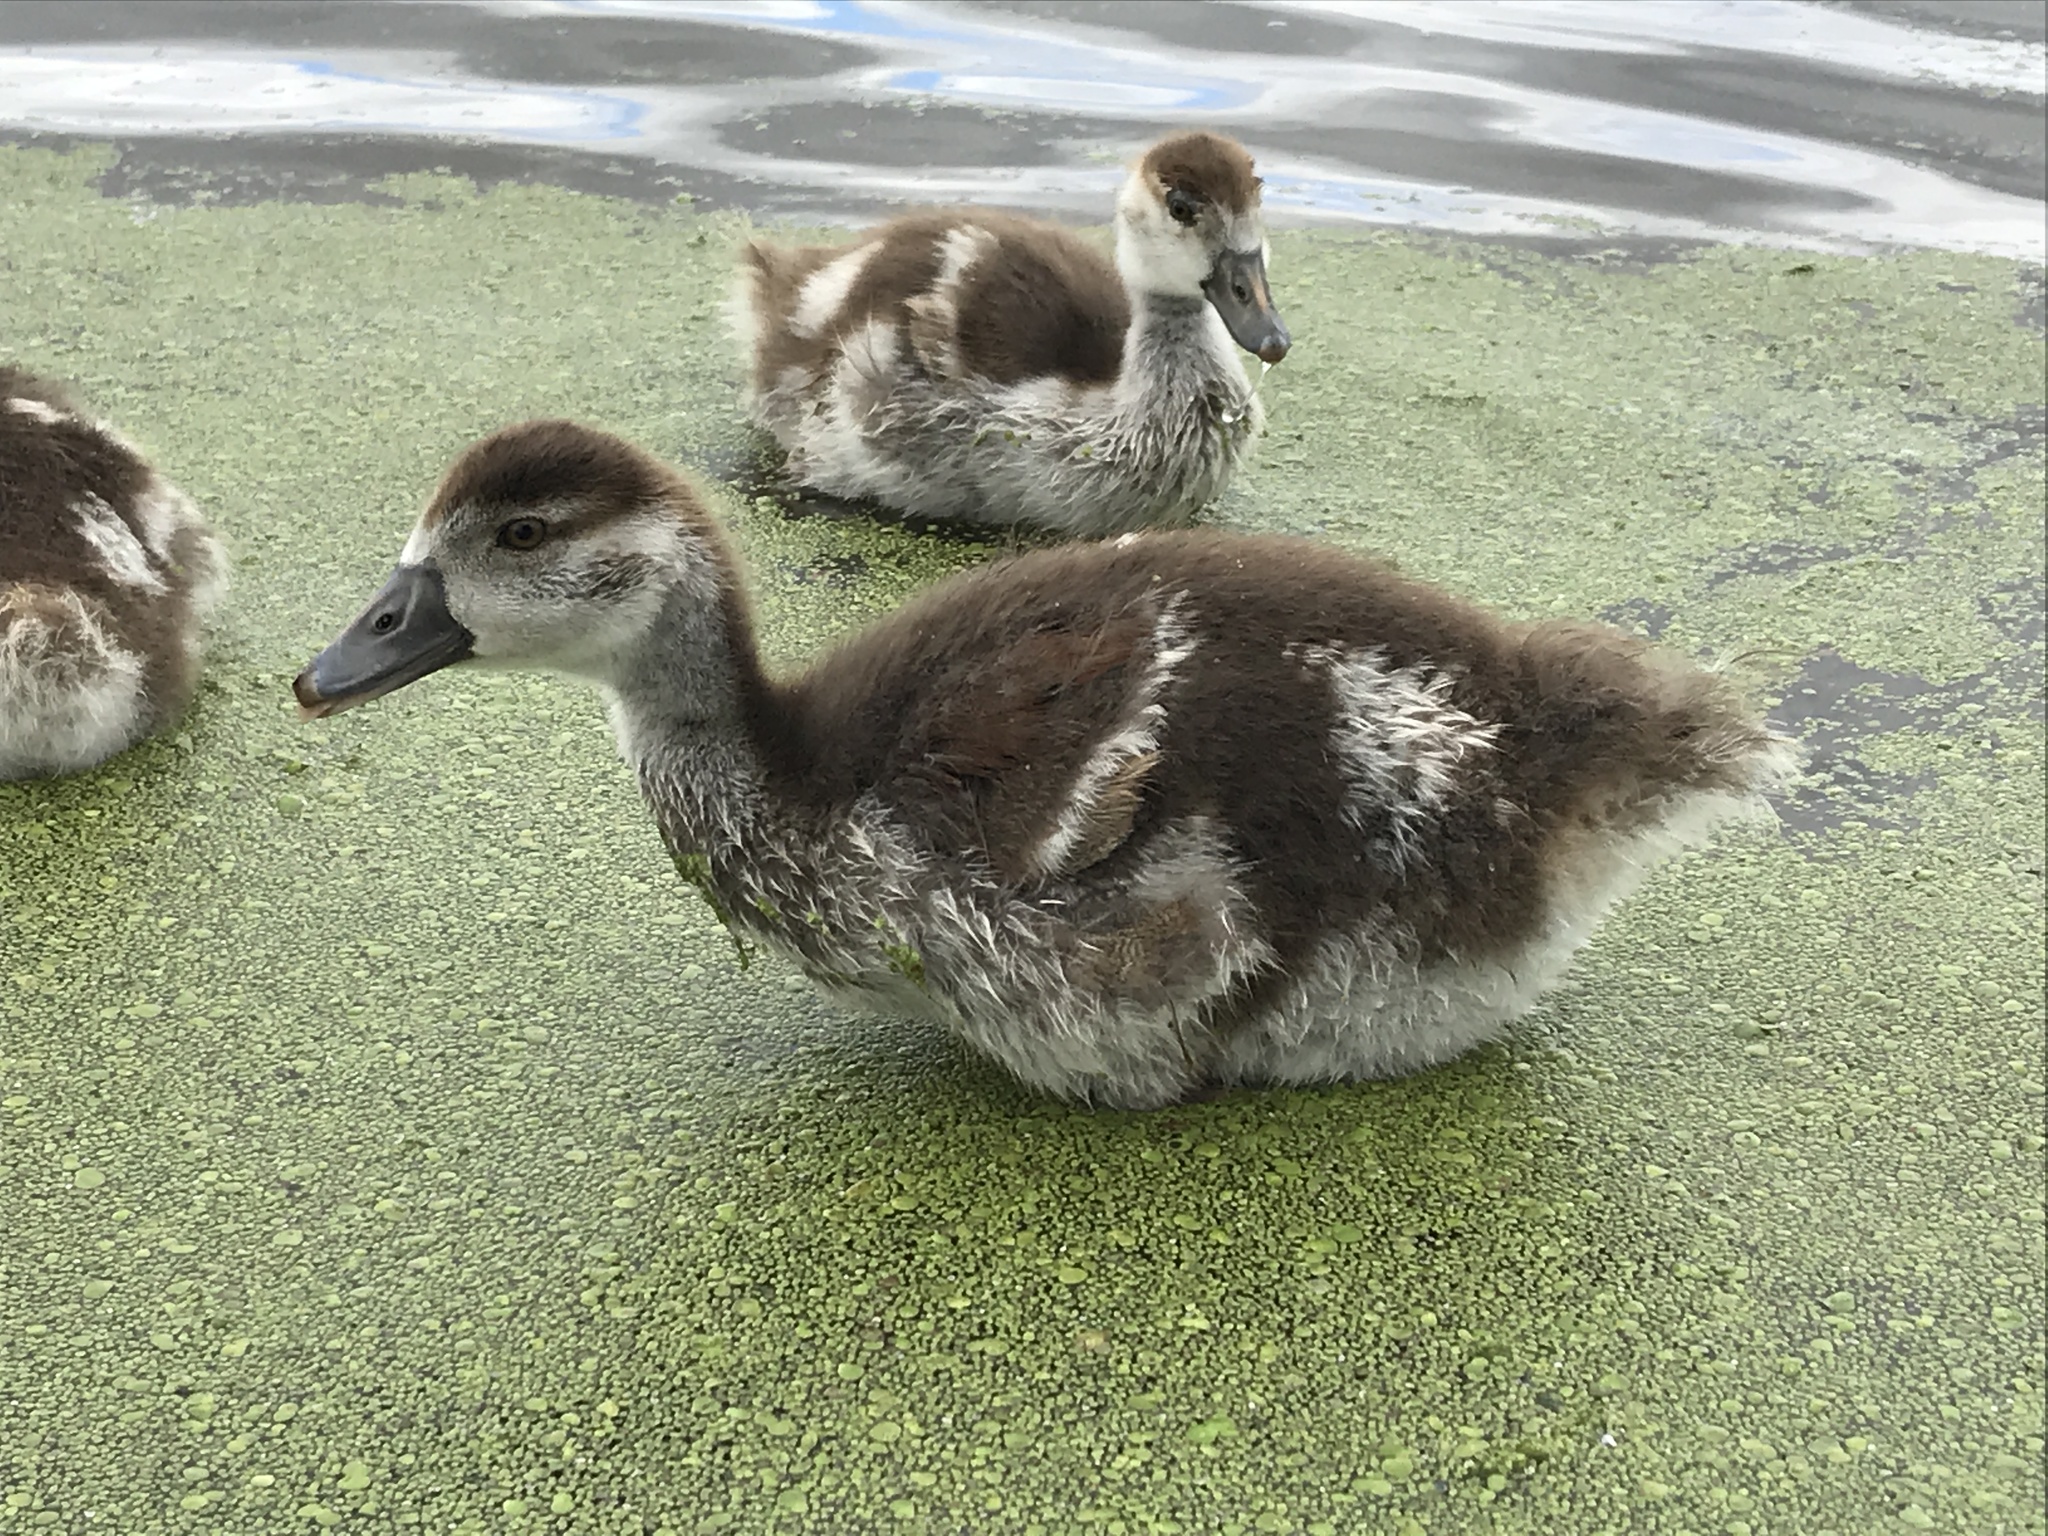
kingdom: Animalia
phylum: Chordata
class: Aves
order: Anseriformes
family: Anatidae
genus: Alopochen
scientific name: Alopochen aegyptiaca
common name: Egyptian goose
